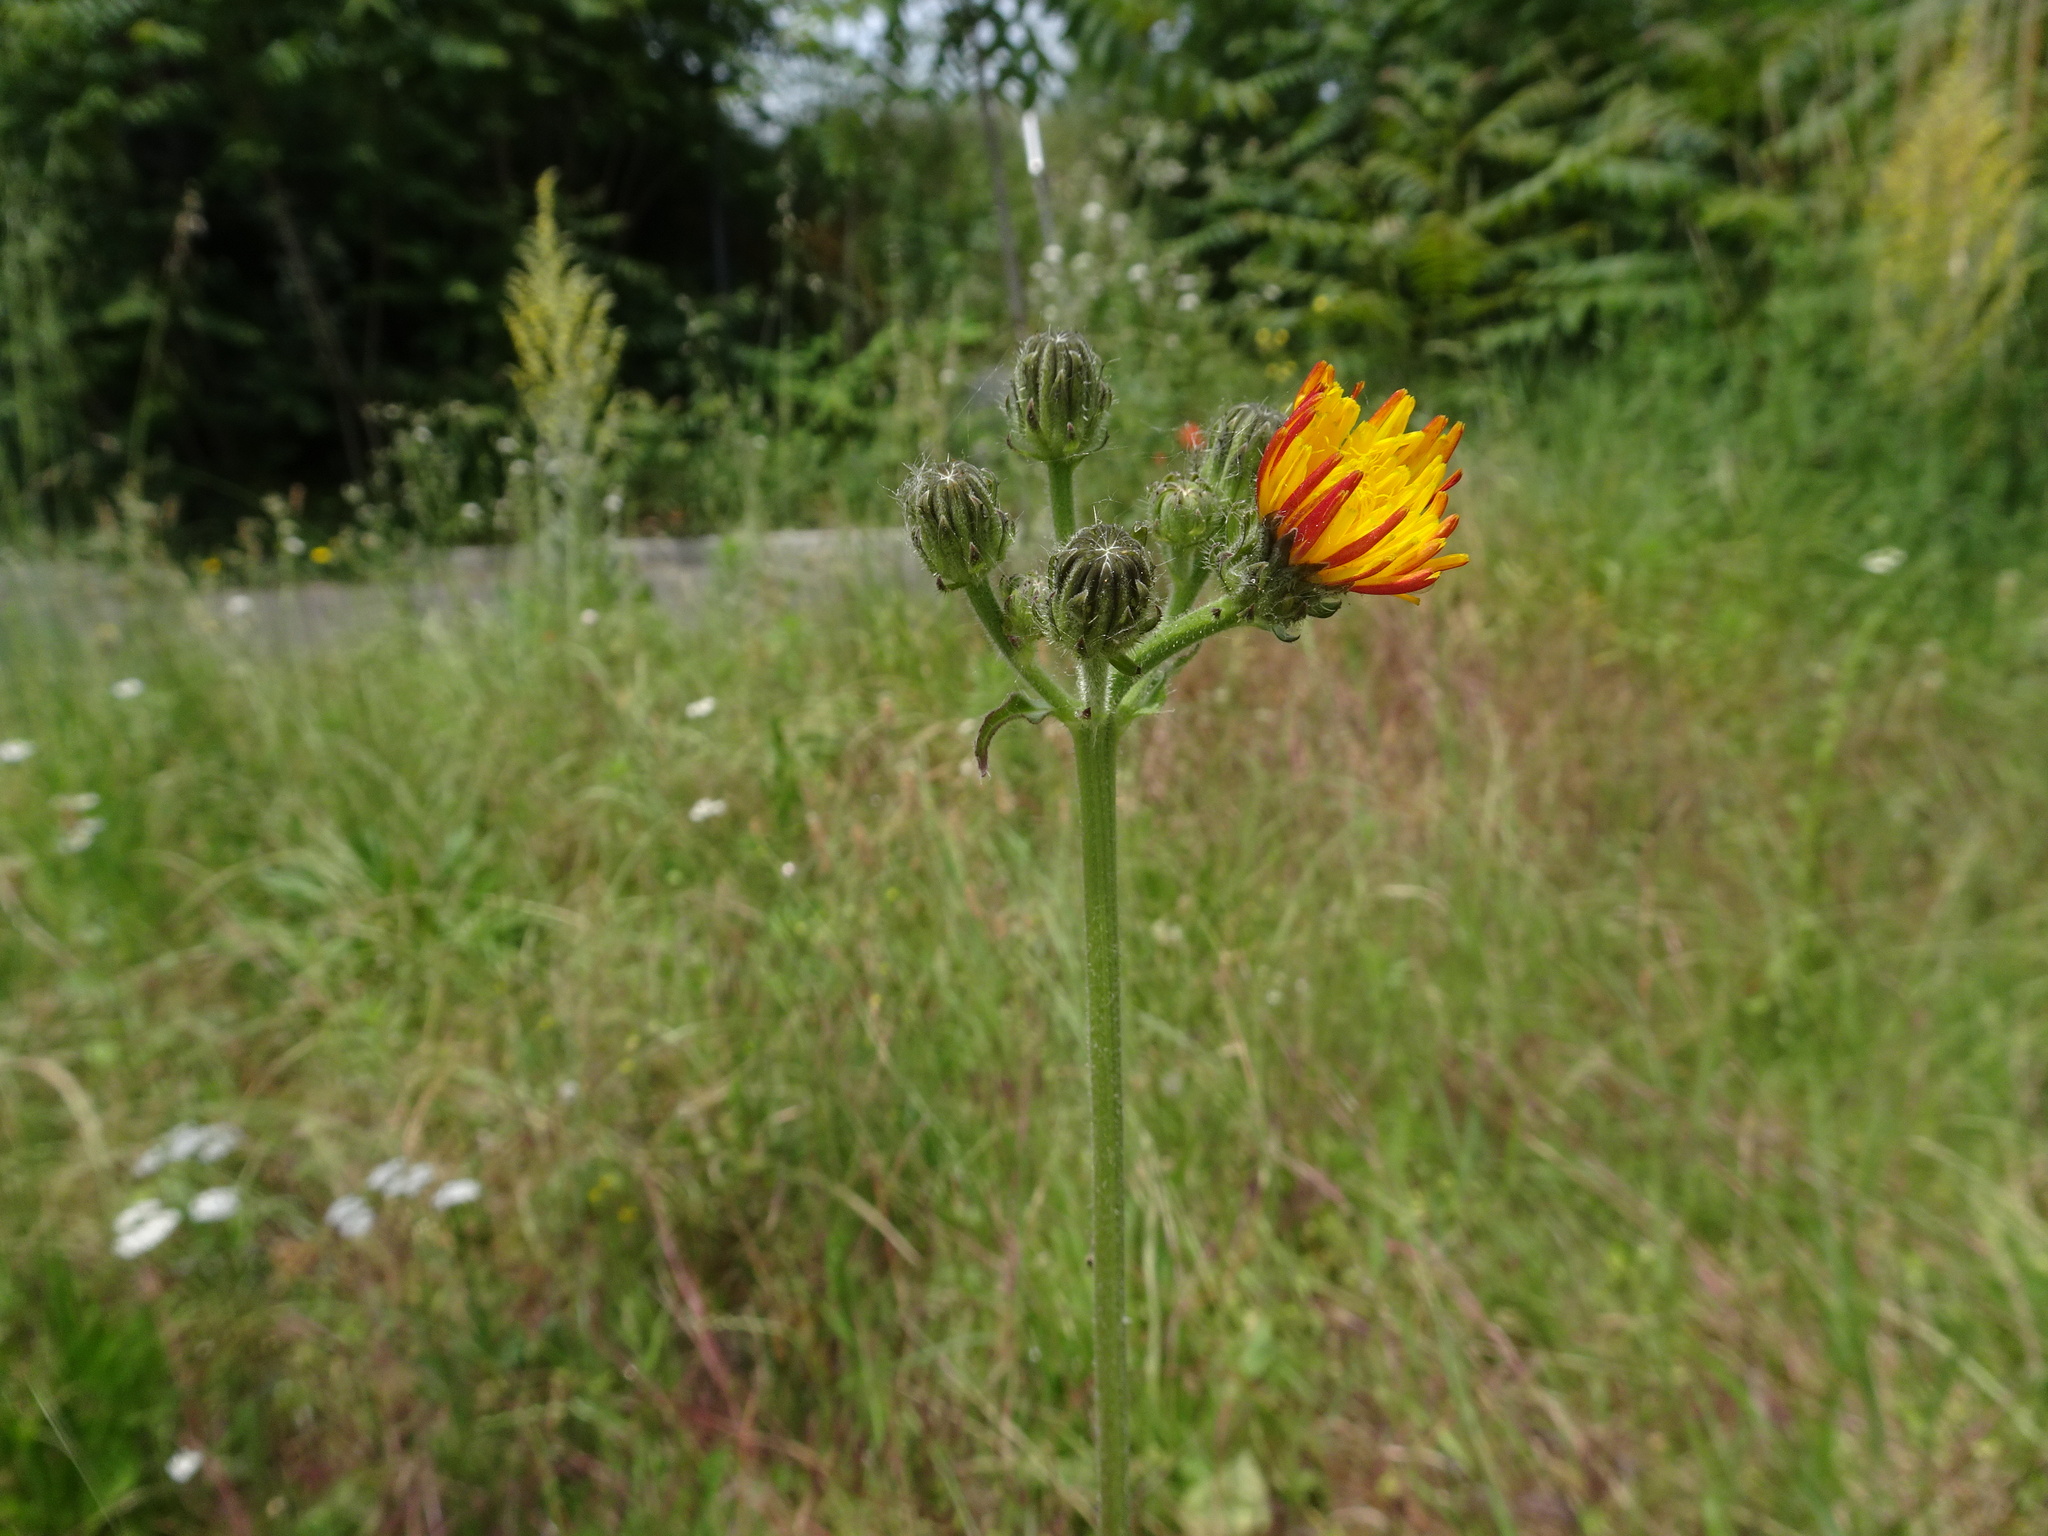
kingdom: Plantae
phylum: Tracheophyta
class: Magnoliopsida
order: Asterales
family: Asteraceae
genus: Picris
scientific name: Picris hieracioides
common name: Hawkweed oxtongue
